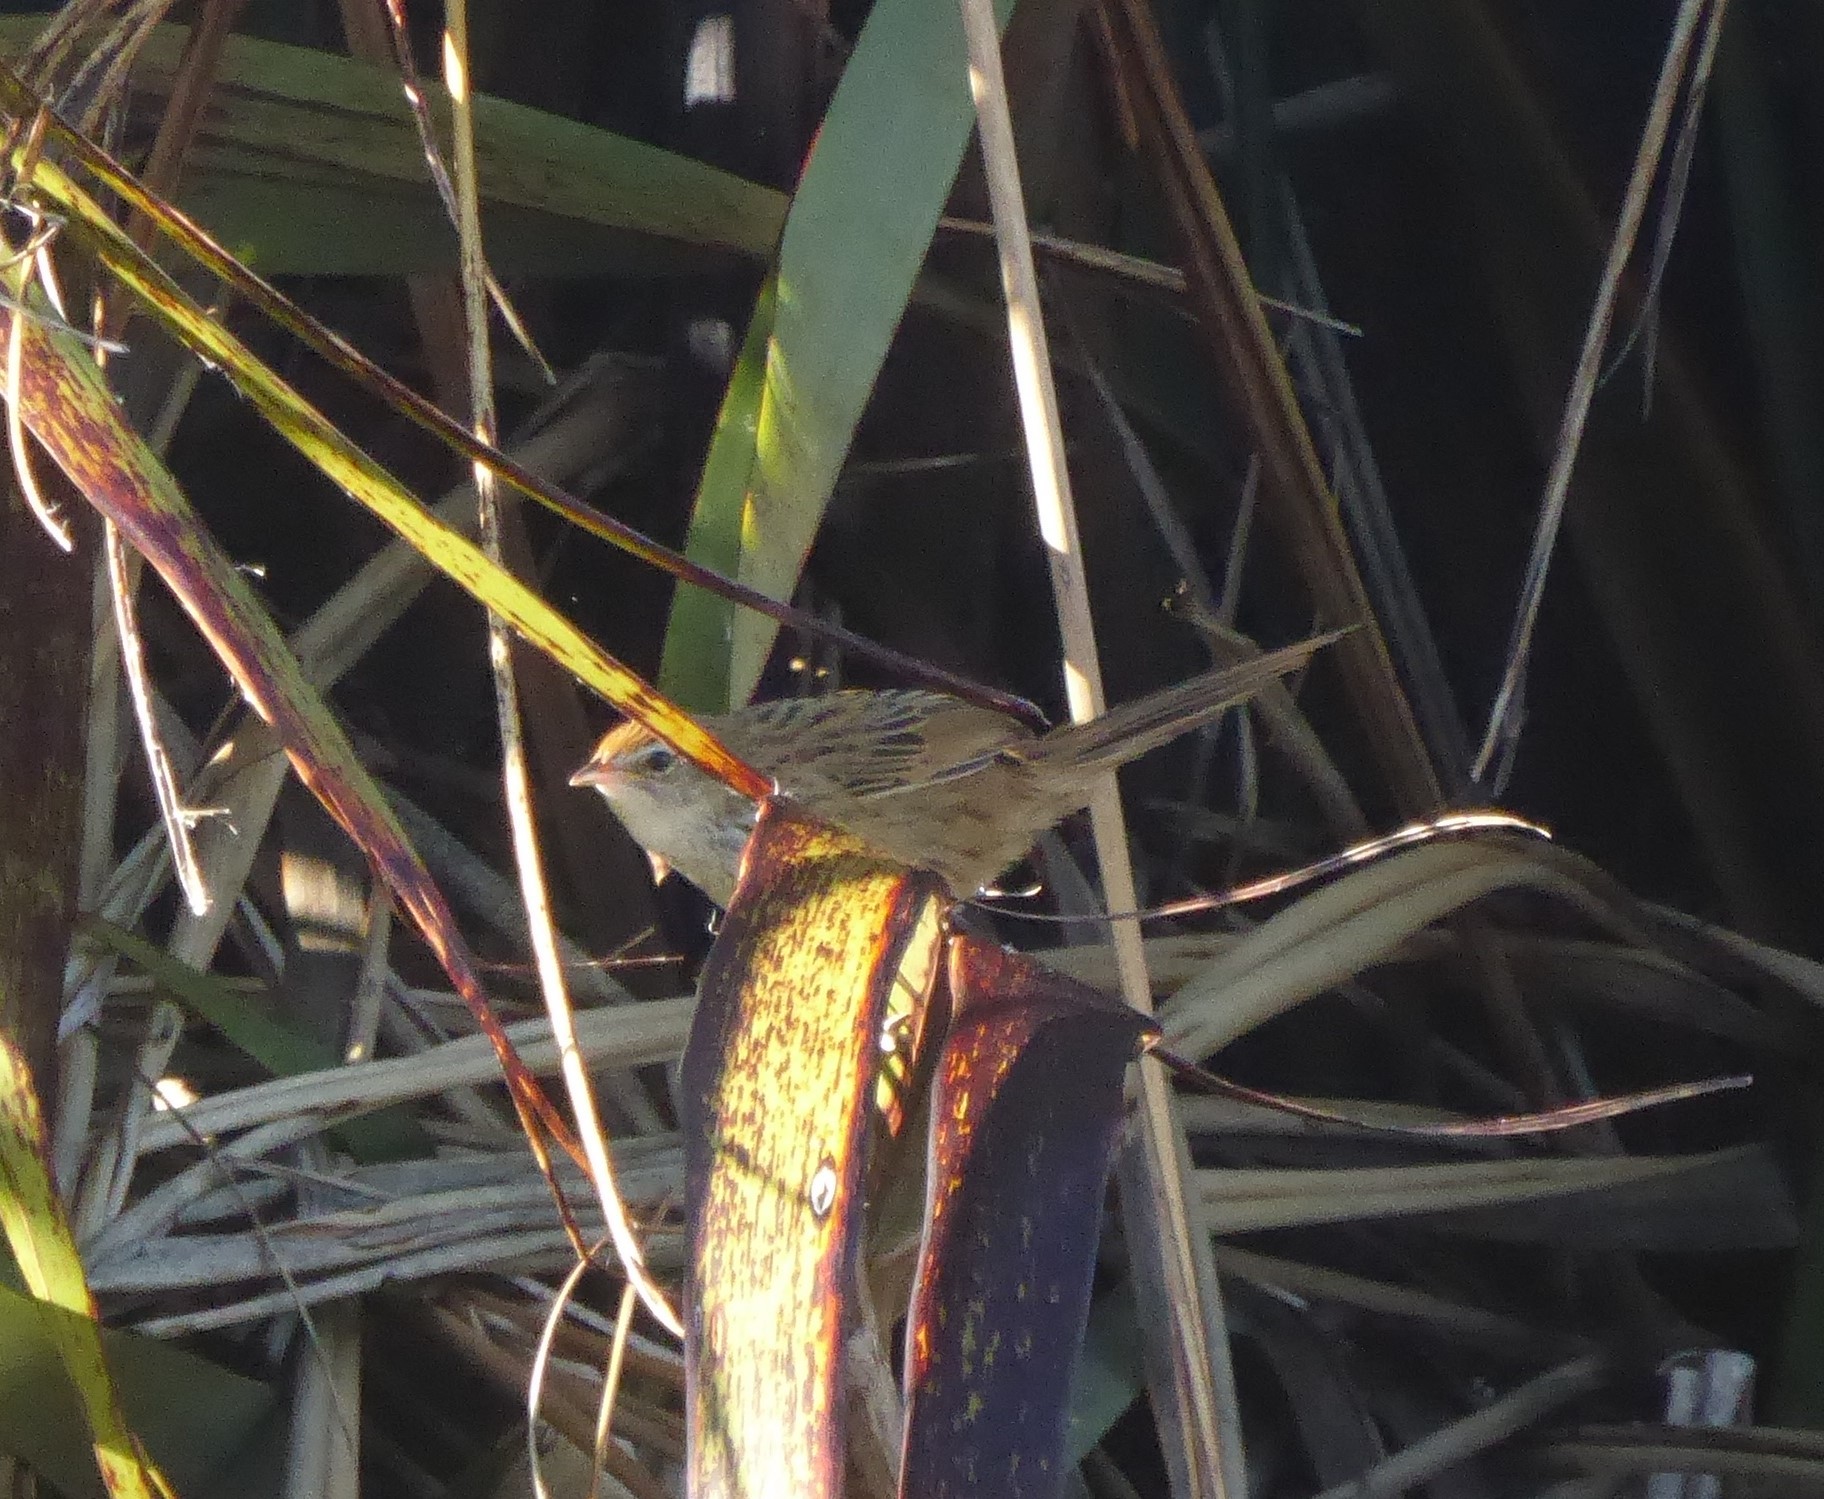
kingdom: Animalia
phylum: Chordata
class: Aves
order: Passeriformes
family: Locustellidae
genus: Poodytes
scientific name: Poodytes punctatus
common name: New zealand fernbird
